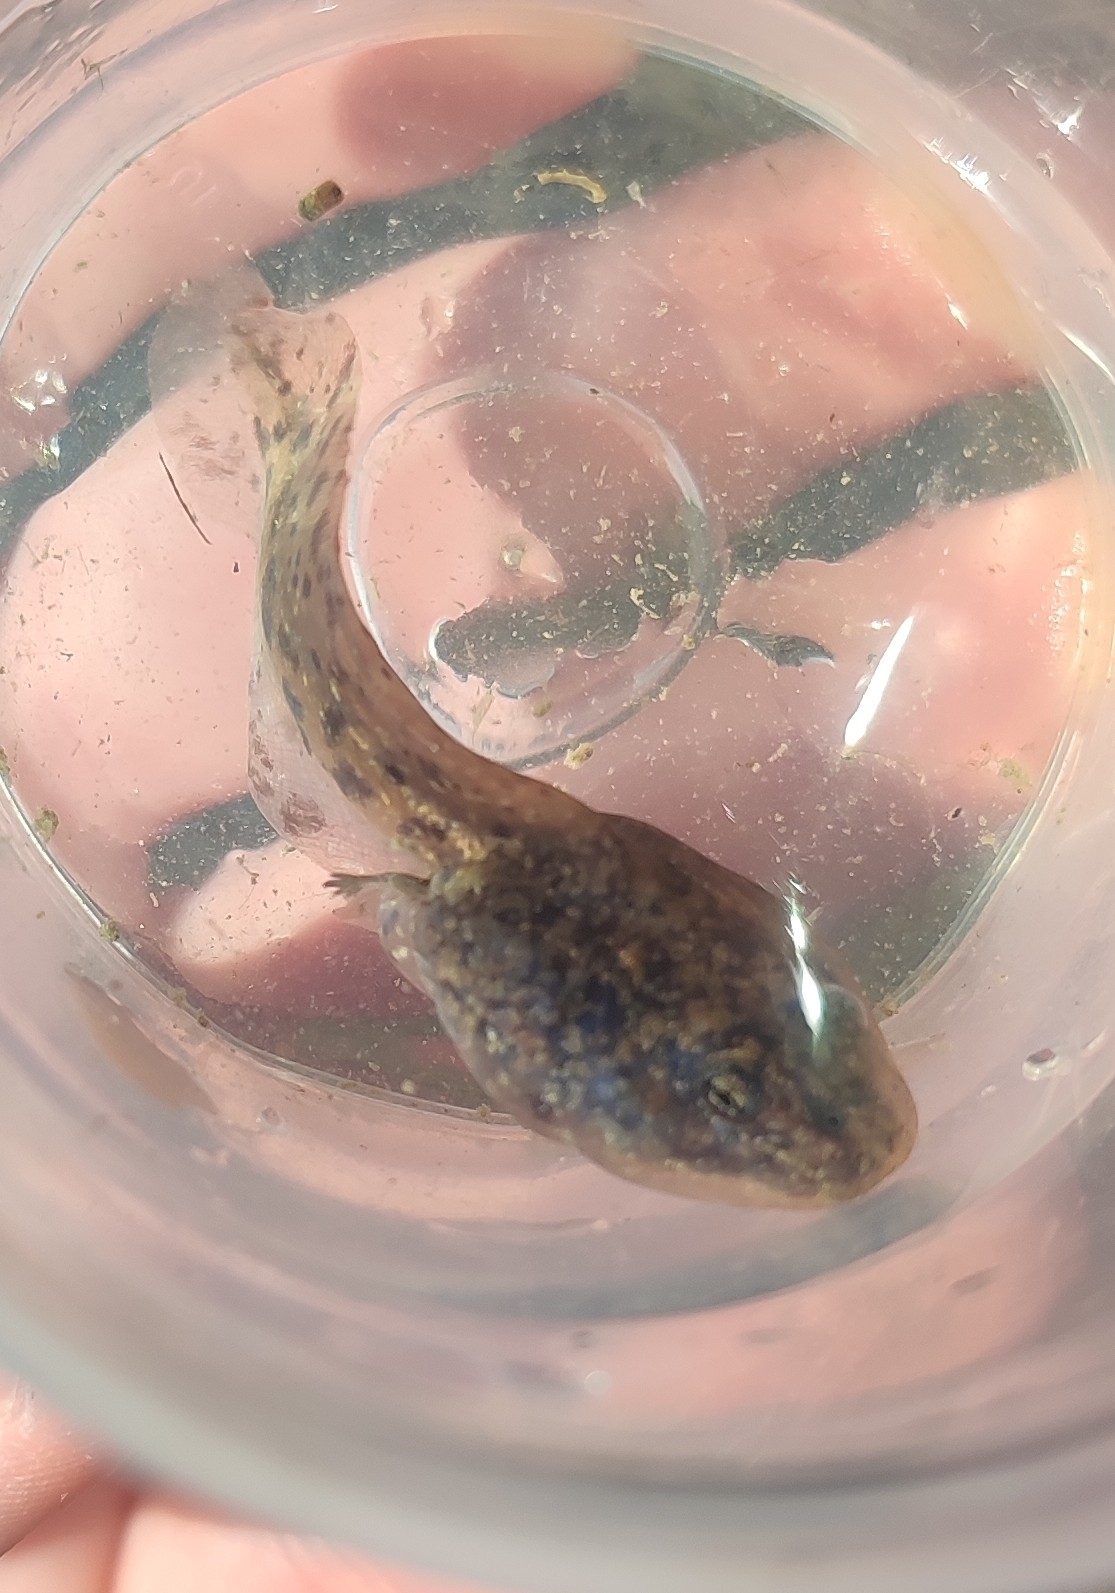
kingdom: Animalia
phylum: Chordata
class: Amphibia
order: Anura
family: Pelodytidae
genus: Pelodytes
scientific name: Pelodytes punctatus
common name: Parsley frog
